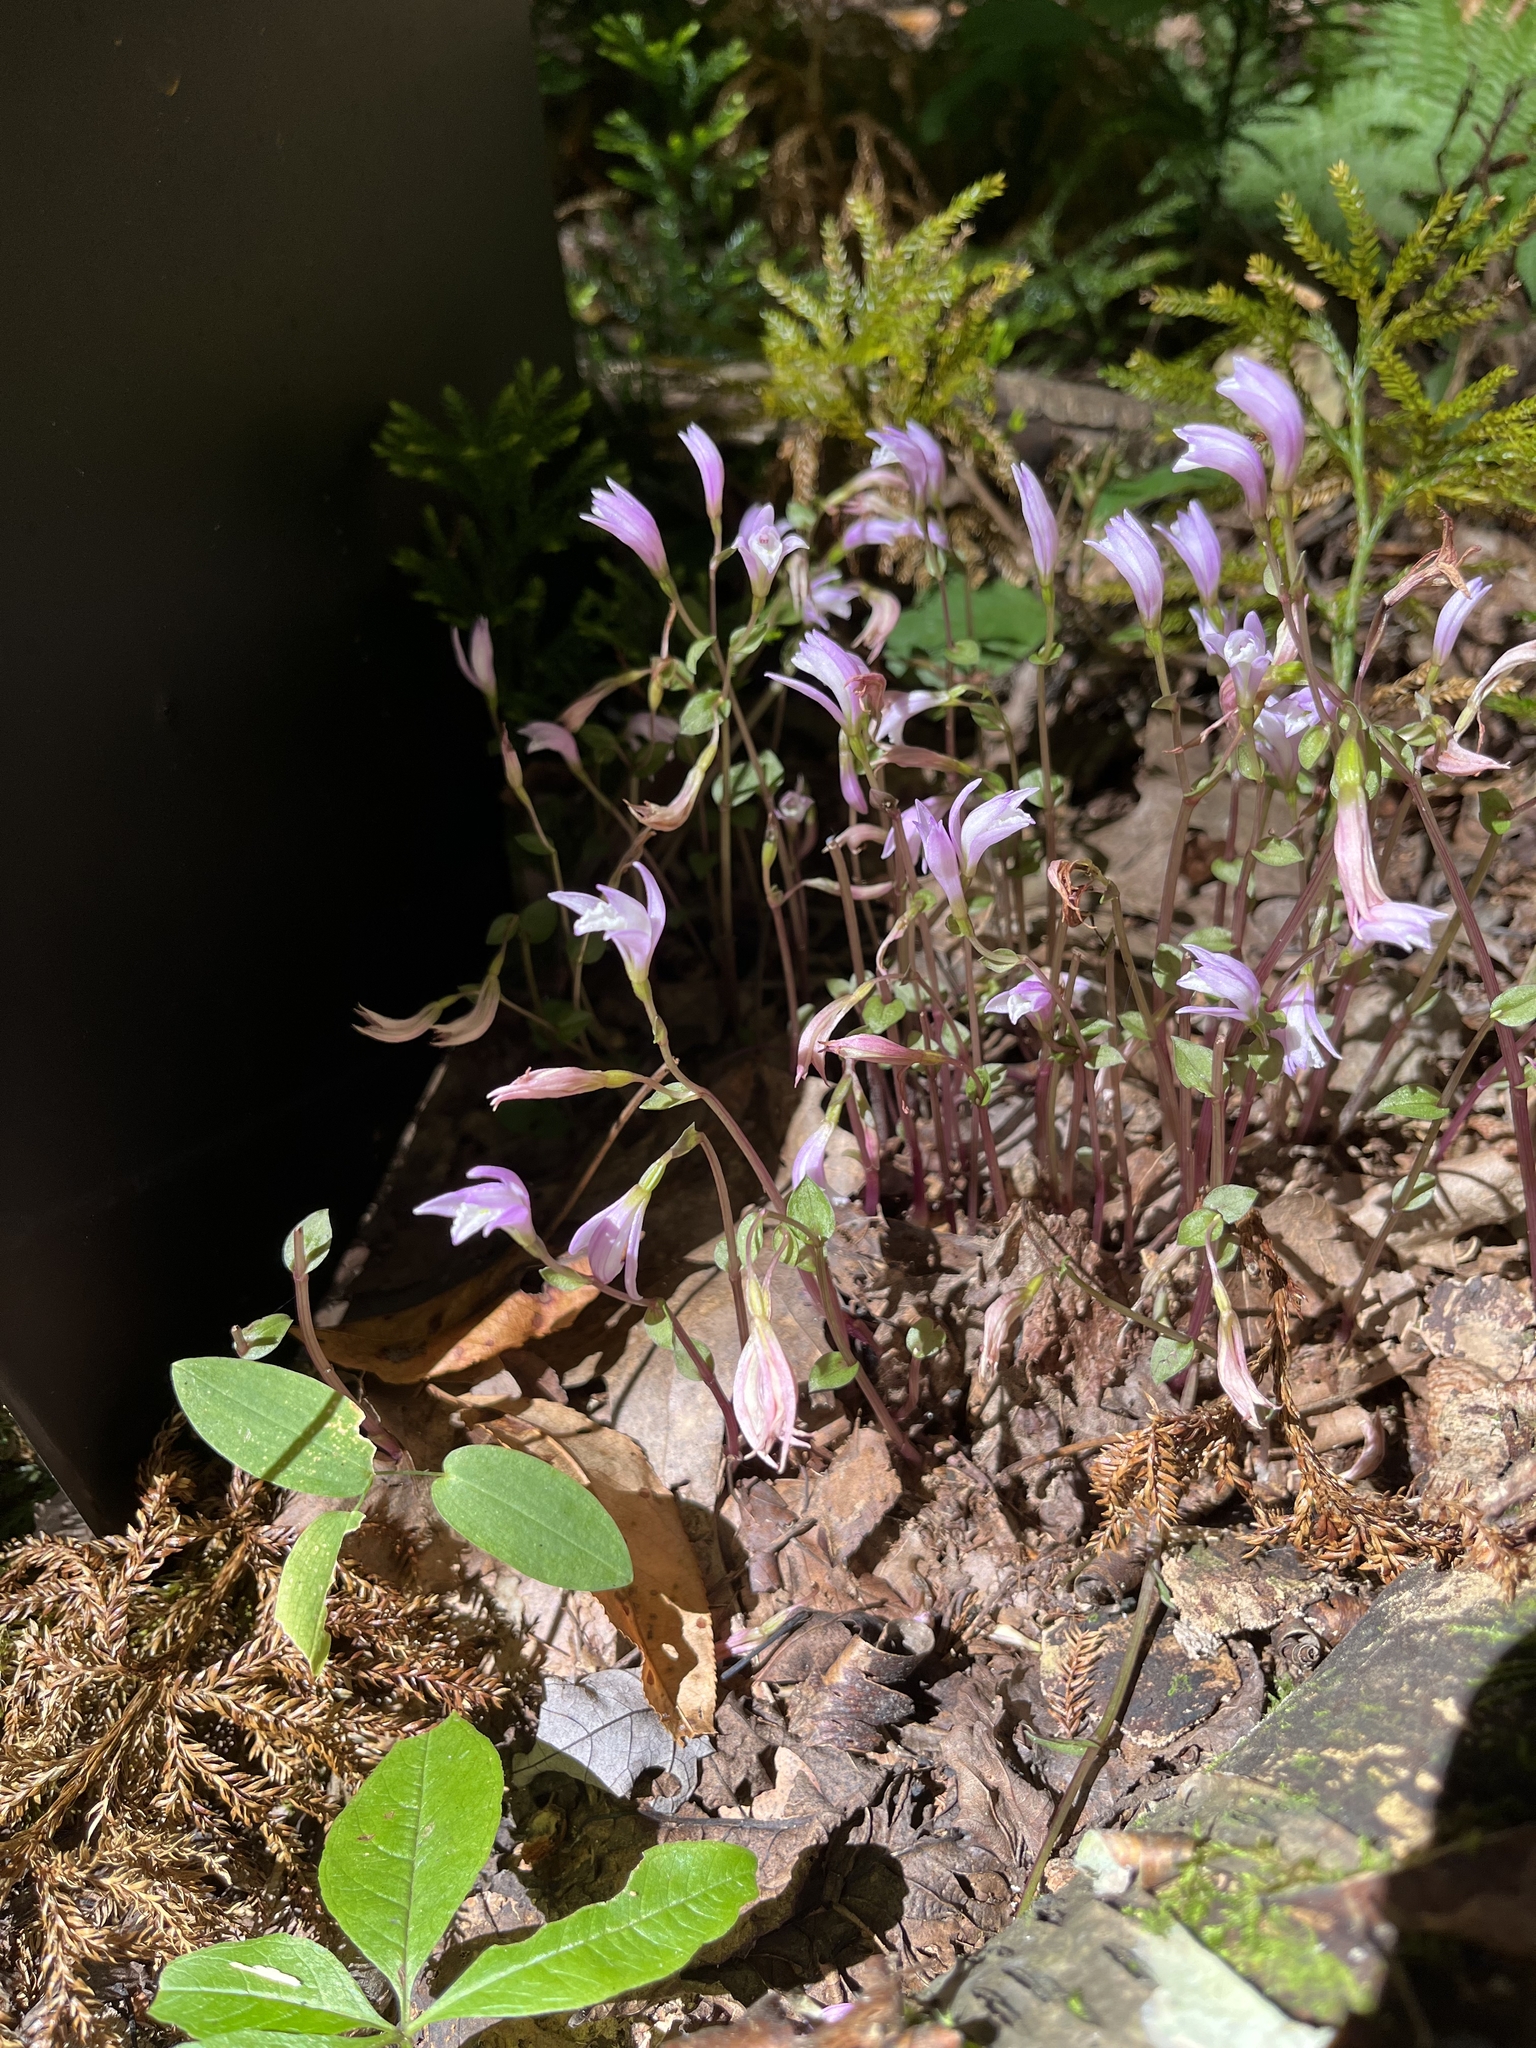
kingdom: Plantae
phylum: Tracheophyta
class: Liliopsida
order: Asparagales
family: Orchidaceae
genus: Triphora
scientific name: Triphora trianthophoros
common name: Three birds orchid
